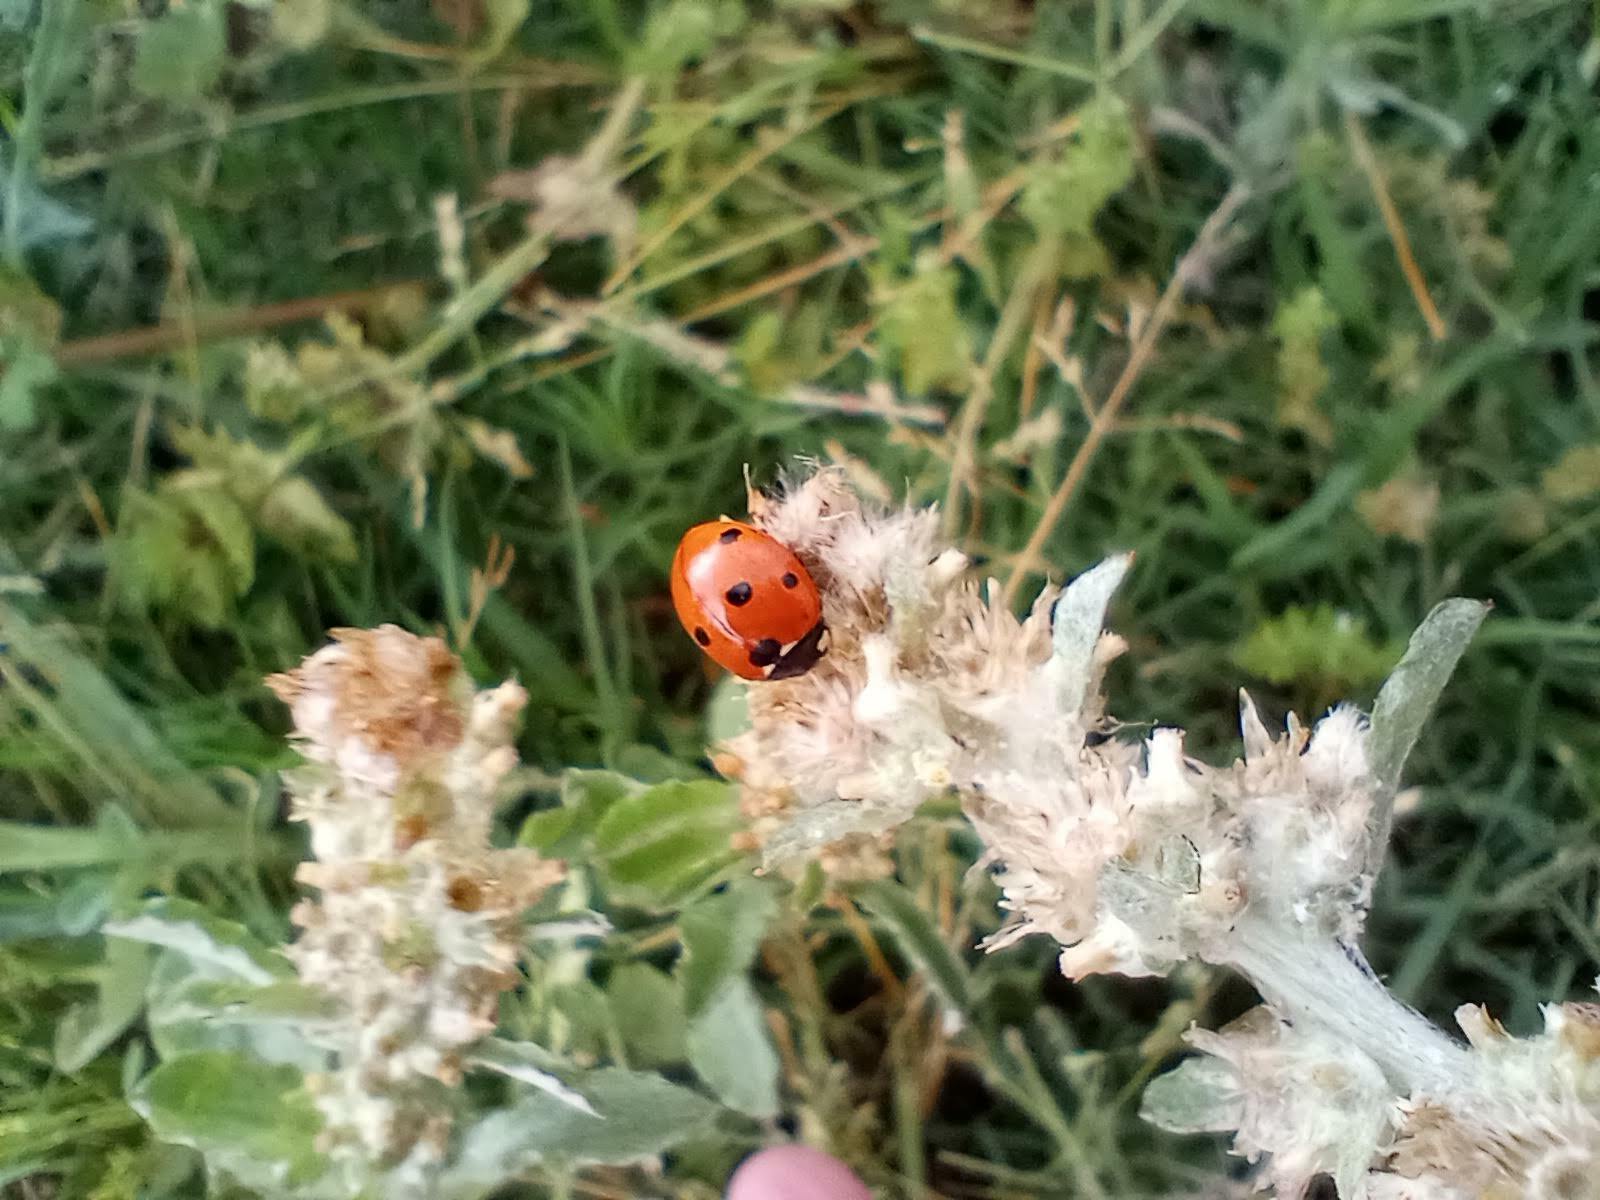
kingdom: Animalia
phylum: Arthropoda
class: Insecta
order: Coleoptera
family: Coccinellidae
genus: Coccinella
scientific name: Coccinella septempunctata
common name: Sevenspotted lady beetle
